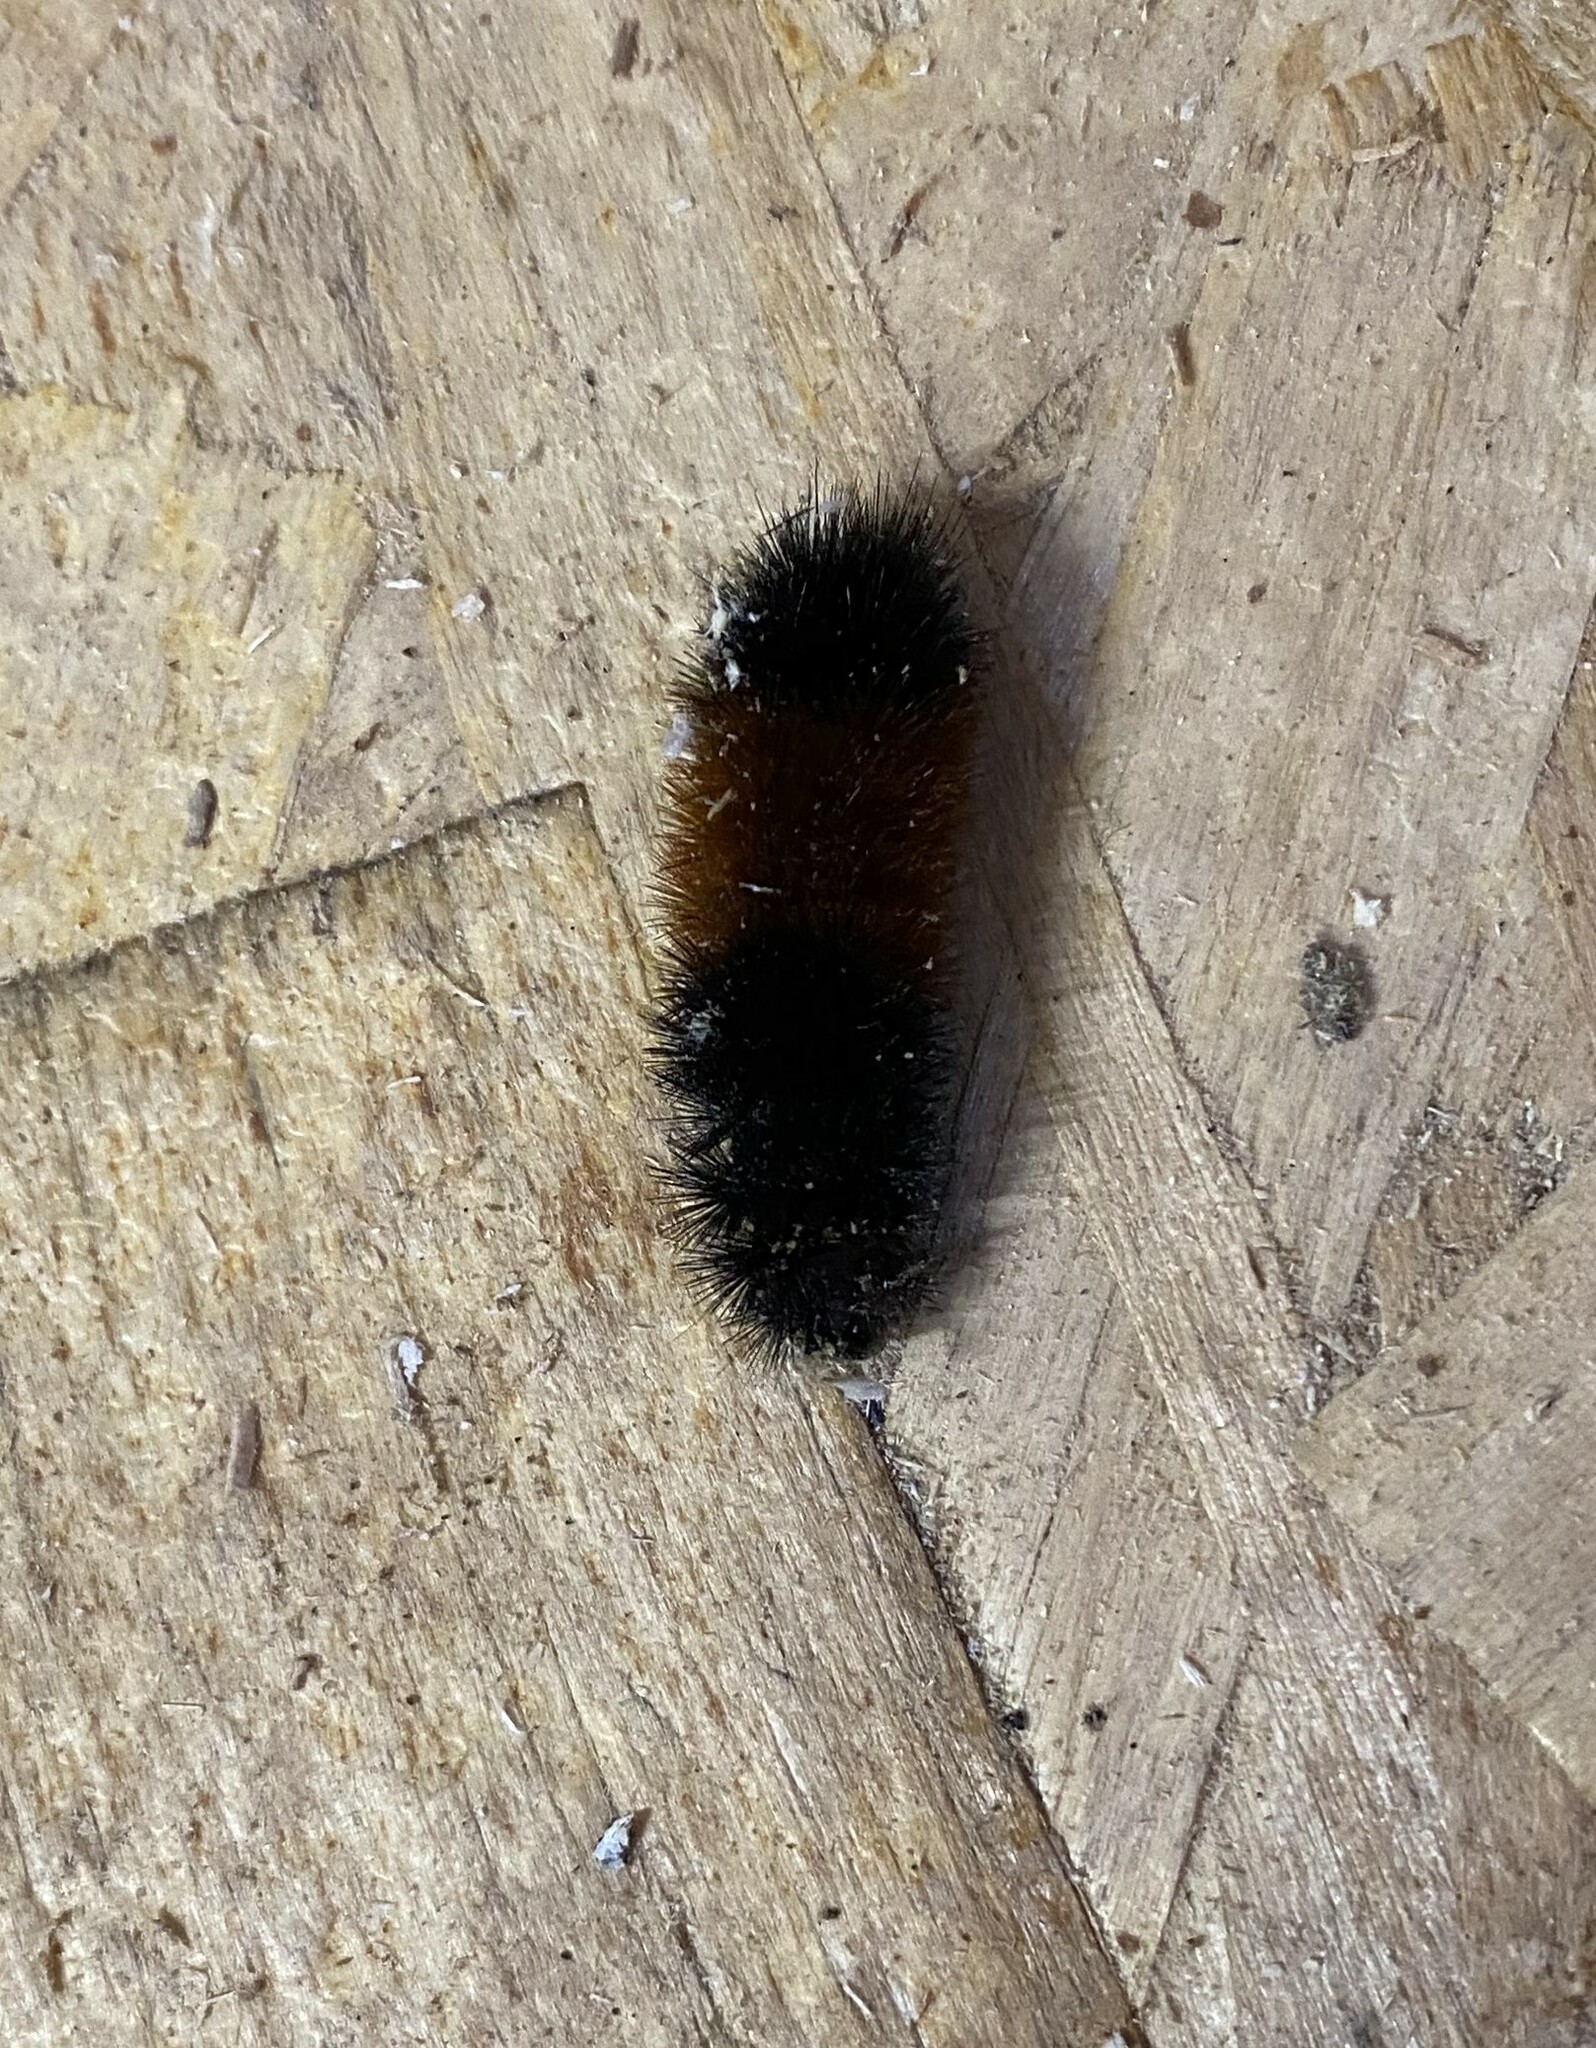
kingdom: Animalia
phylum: Arthropoda
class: Insecta
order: Lepidoptera
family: Erebidae
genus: Pyrrharctia
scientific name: Pyrrharctia isabella
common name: Isabella tiger moth
